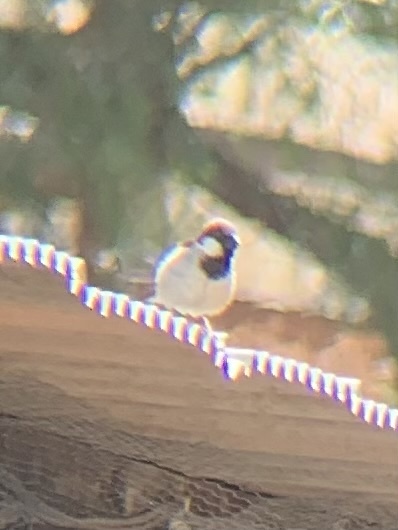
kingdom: Animalia
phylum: Chordata
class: Aves
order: Passeriformes
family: Passeridae
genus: Passer
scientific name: Passer domesticus
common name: House sparrow
